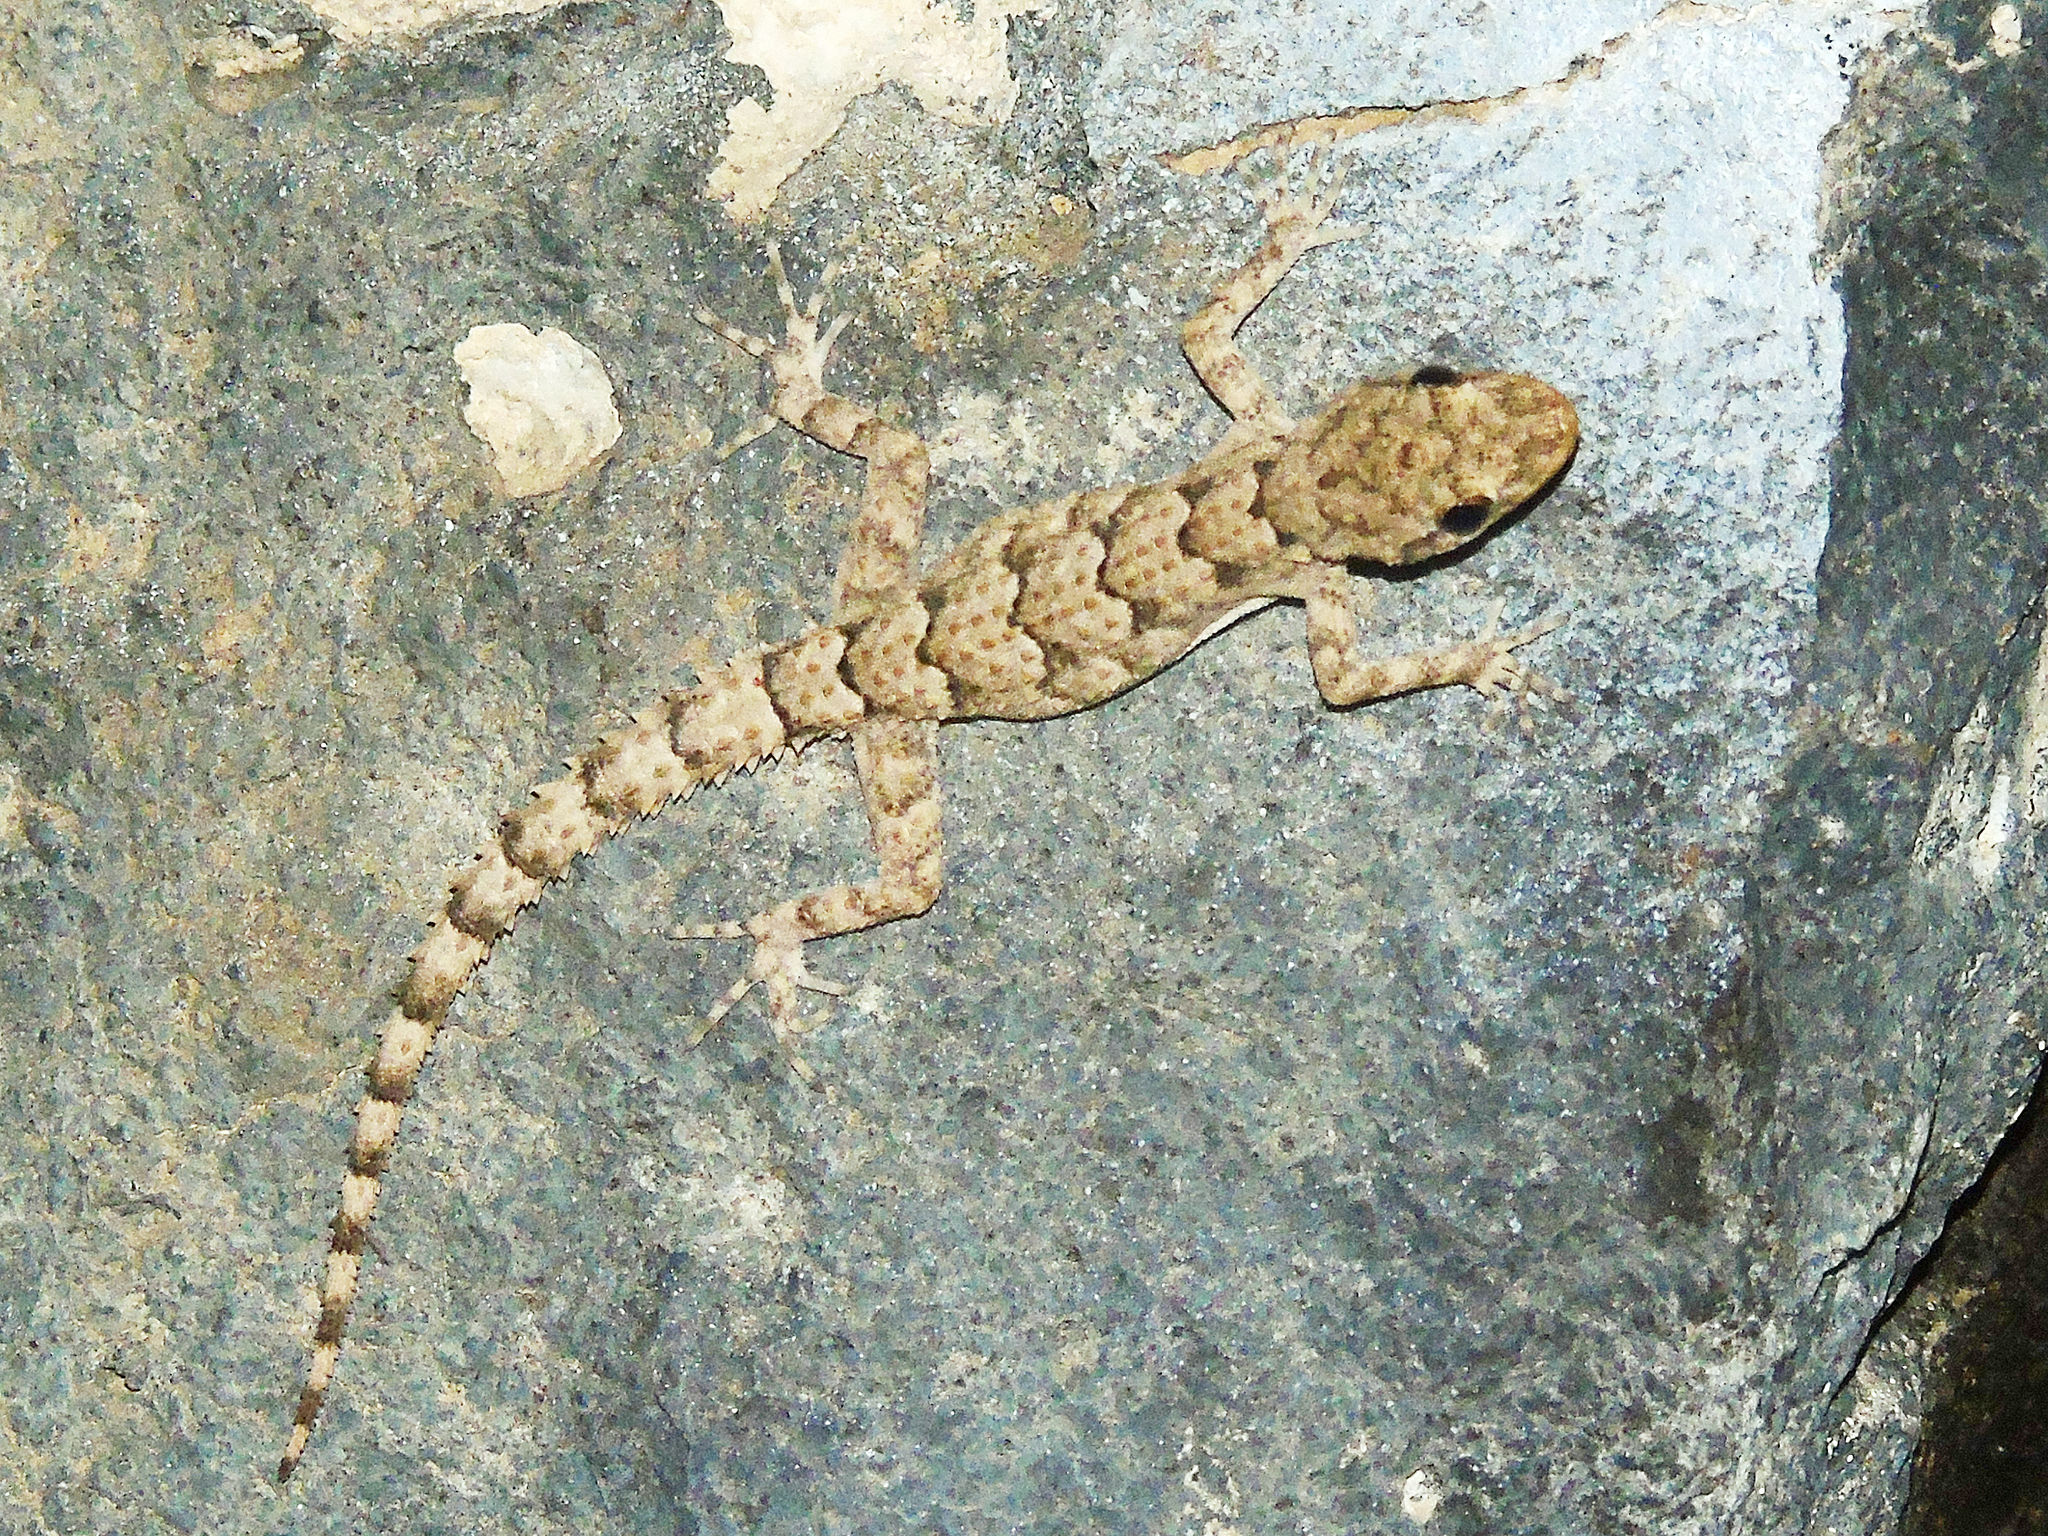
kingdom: Animalia
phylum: Chordata
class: Squamata
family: Gekkonidae
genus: Mediodactylus
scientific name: Mediodactylus heterocercus
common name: Asia minor thin-toed gecko
